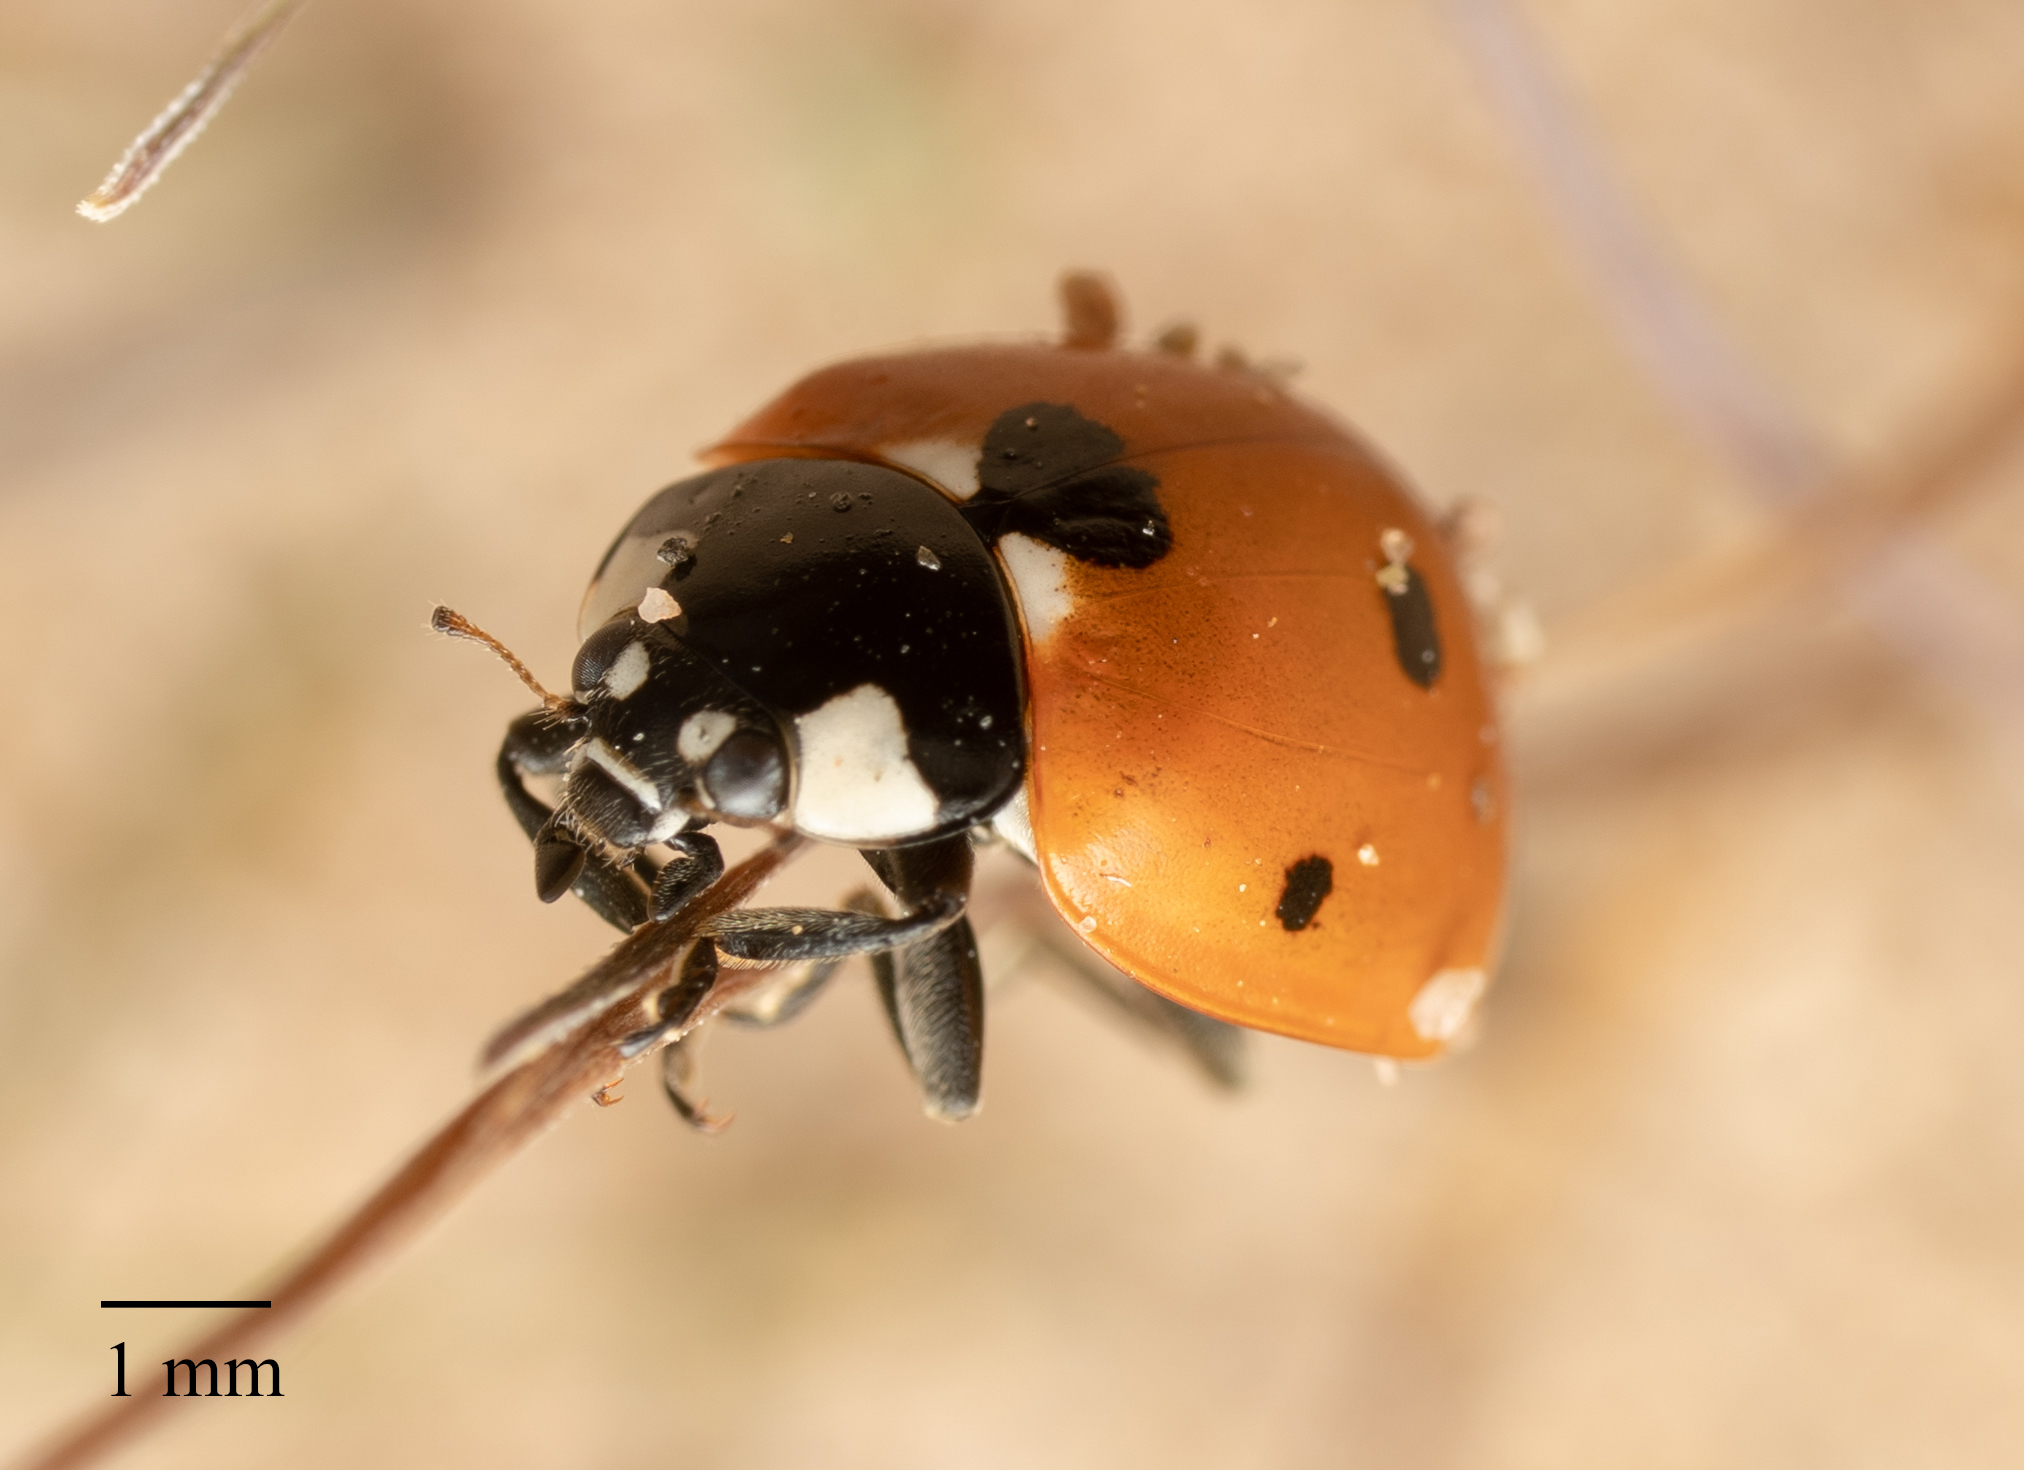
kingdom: Animalia
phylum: Arthropoda
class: Insecta
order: Coleoptera
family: Coccinellidae
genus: Coccinella
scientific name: Coccinella septempunctata
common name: Sevenspotted lady beetle
